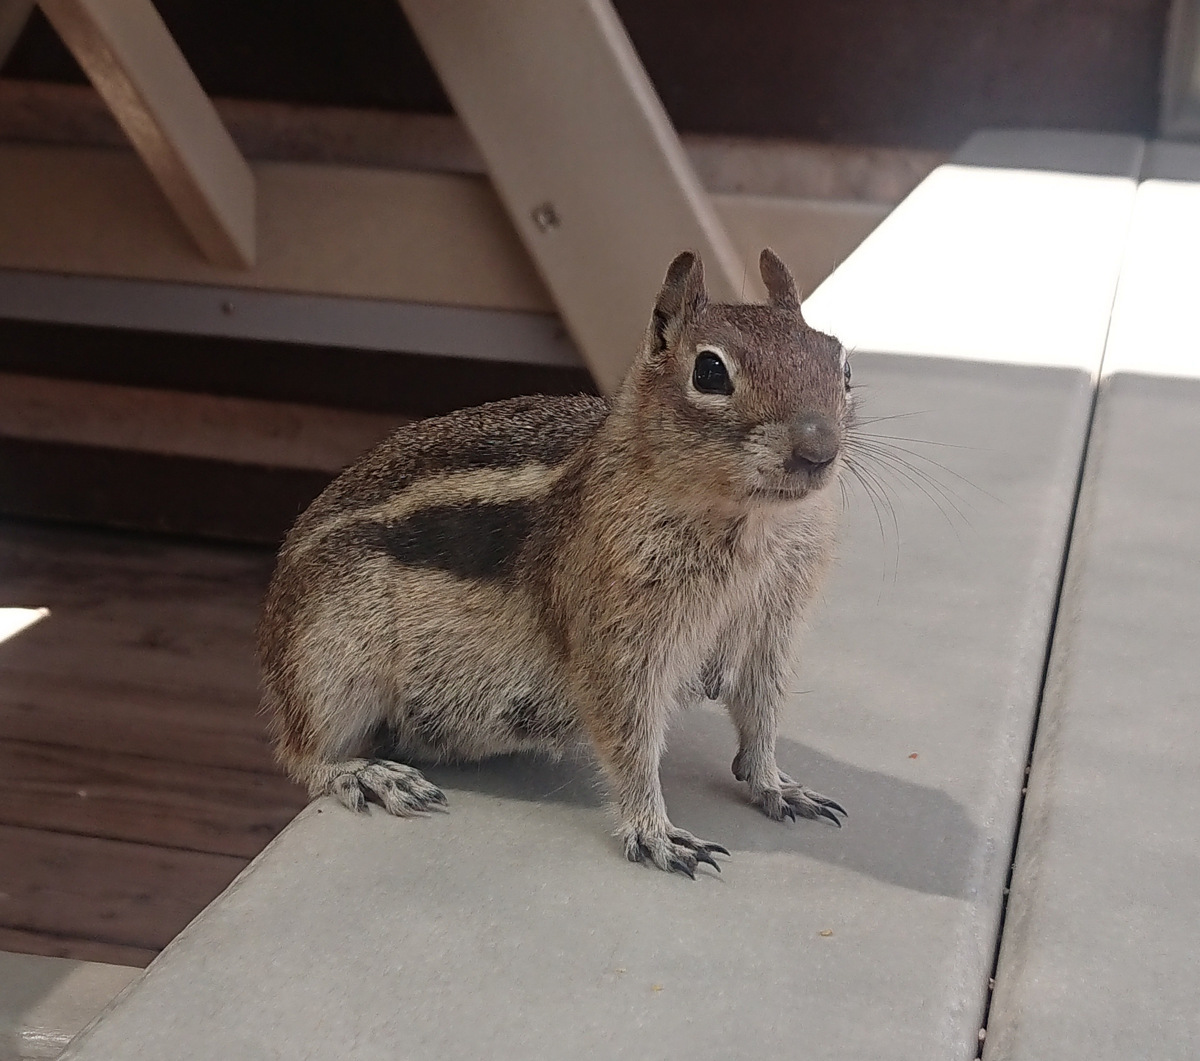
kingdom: Animalia
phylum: Chordata
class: Mammalia
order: Rodentia
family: Sciuridae
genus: Callospermophilus
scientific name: Callospermophilus lateralis
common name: Golden-mantled ground squirrel
